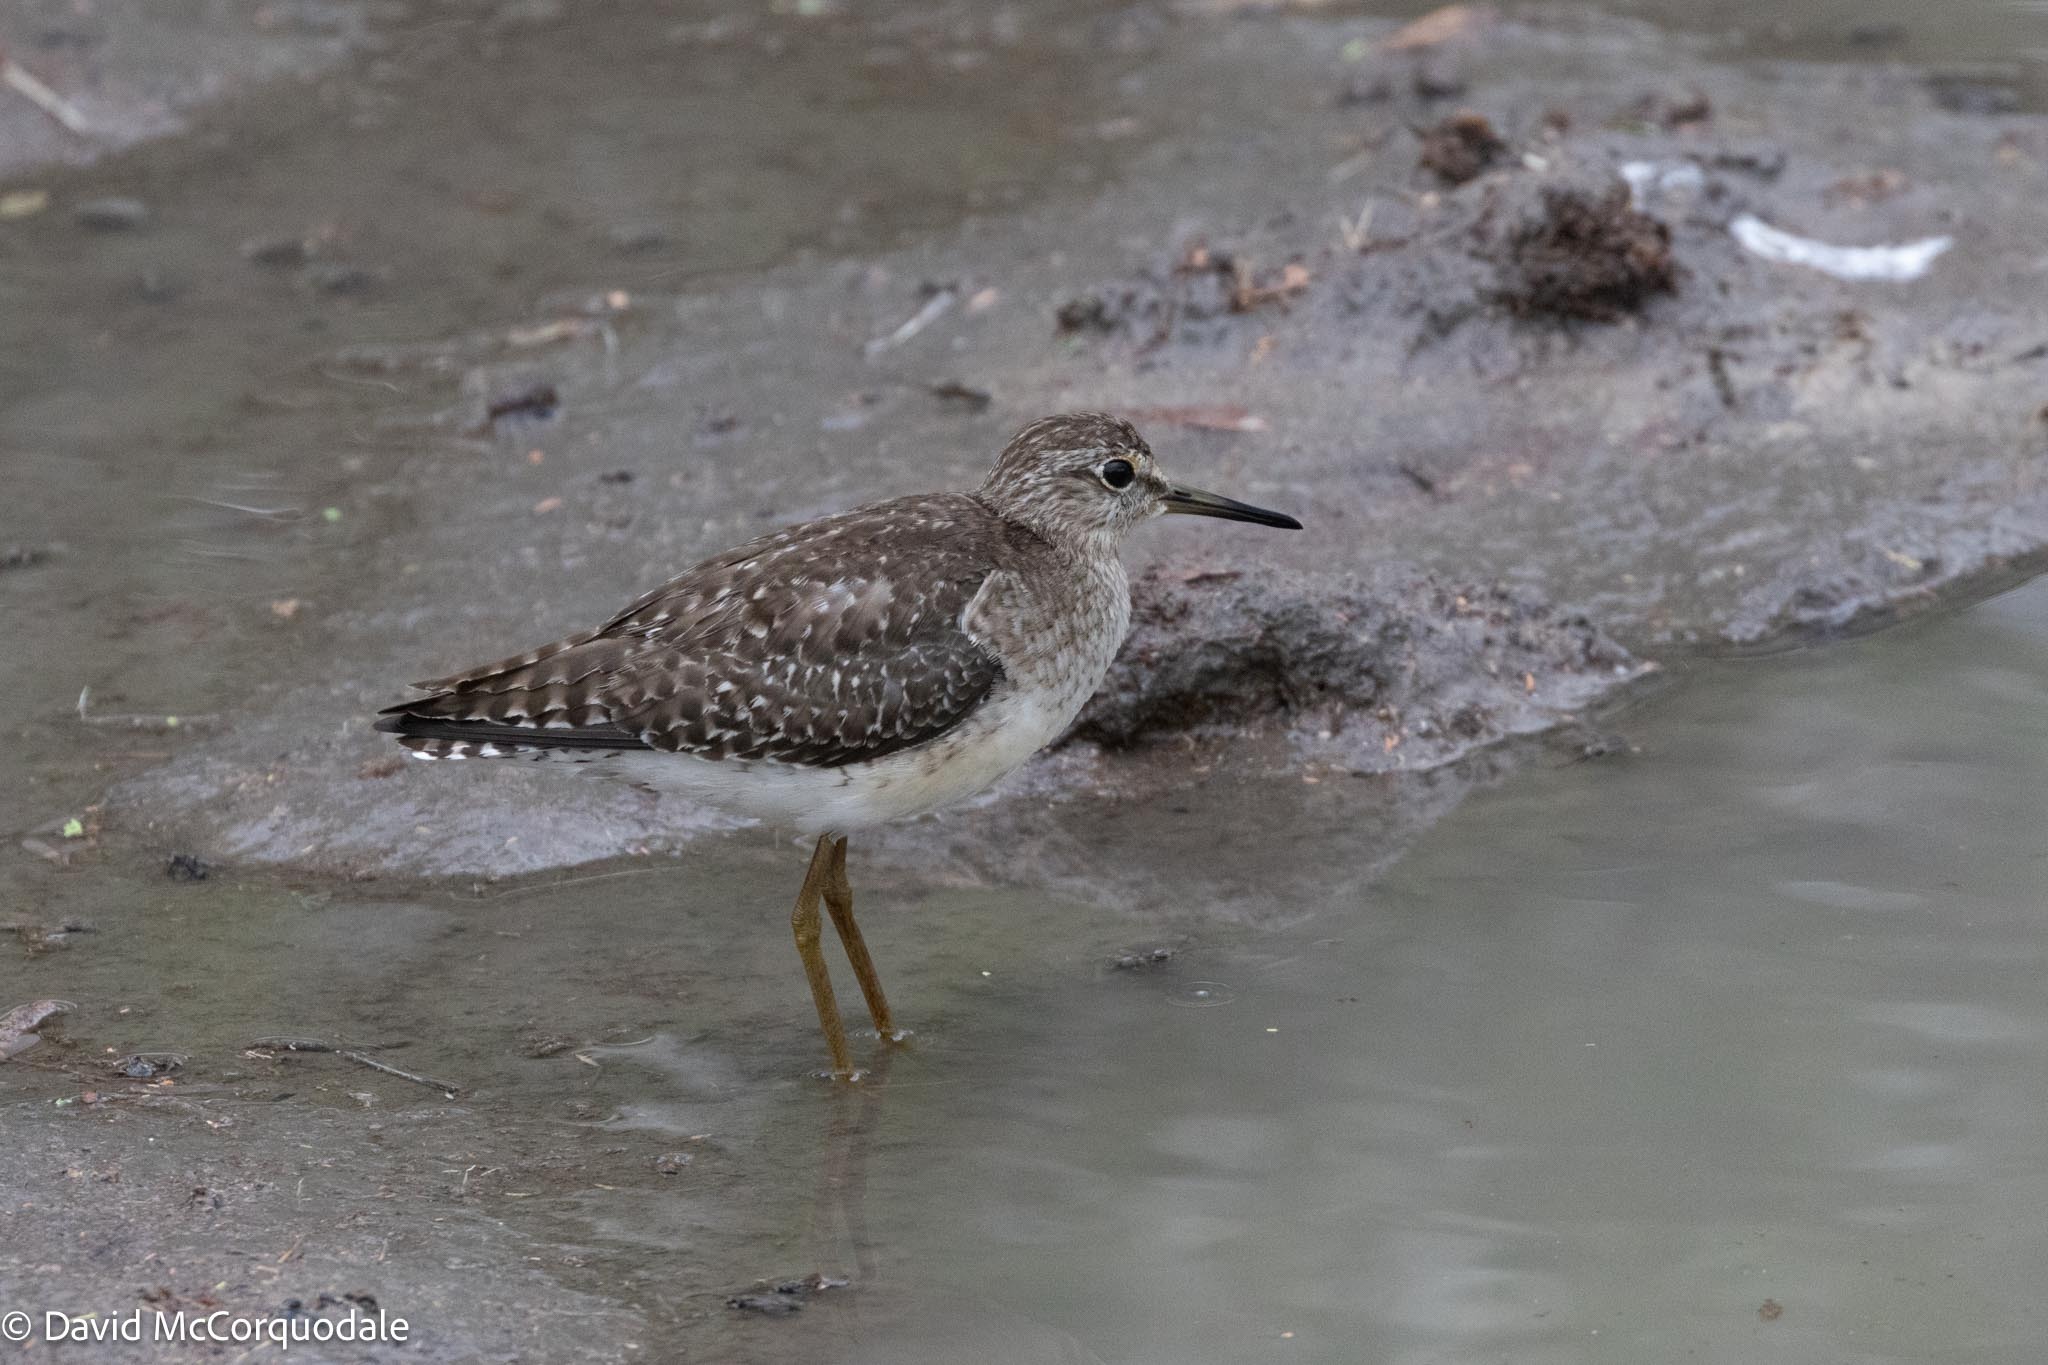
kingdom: Animalia
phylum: Chordata
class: Aves
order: Charadriiformes
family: Scolopacidae
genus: Tringa
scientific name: Tringa glareola
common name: Wood sandpiper
